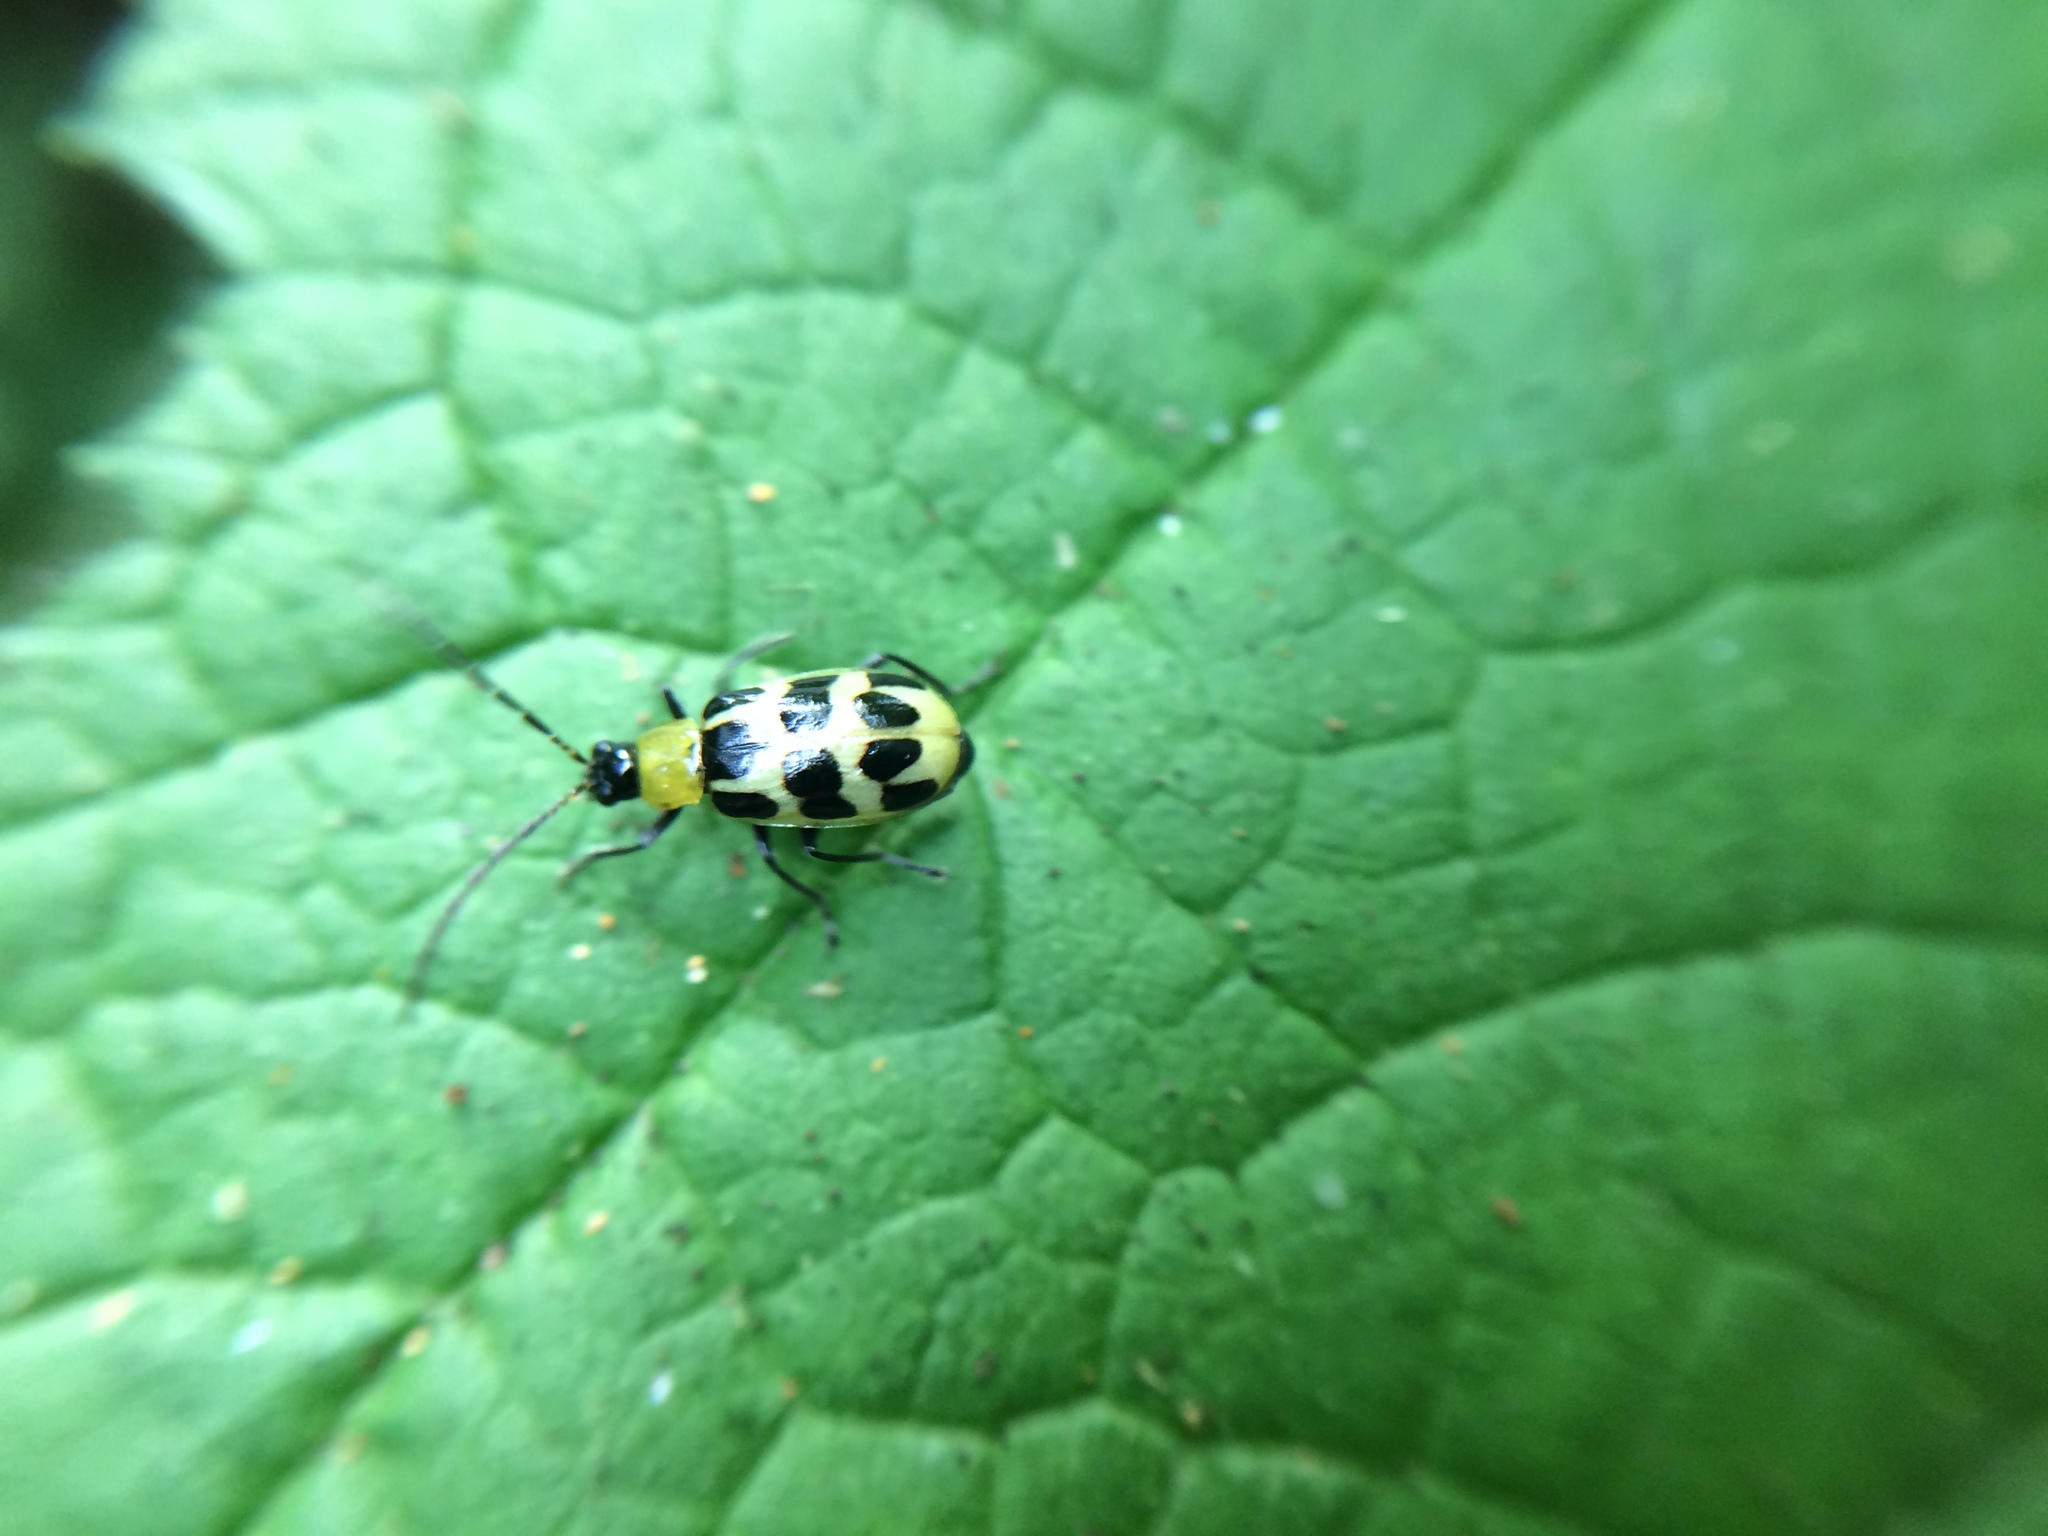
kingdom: Animalia
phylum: Arthropoda
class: Insecta
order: Coleoptera
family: Chrysomelidae
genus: Diabrotica
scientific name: Diabrotica undecimpunctata
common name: Spotted cucumber beetle
